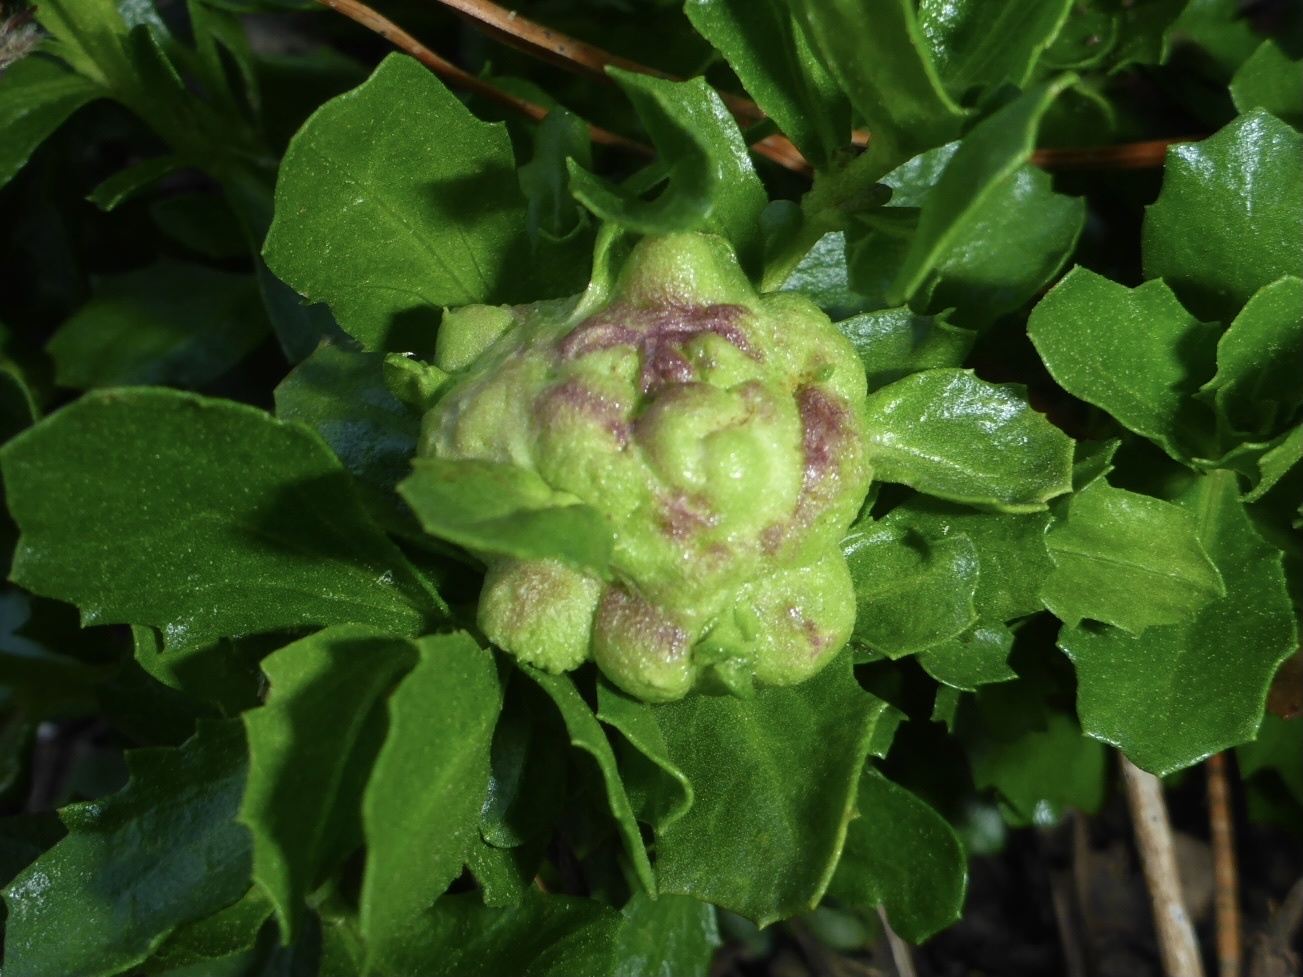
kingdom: Animalia
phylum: Arthropoda
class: Insecta
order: Diptera
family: Cecidomyiidae
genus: Rhopalomyia
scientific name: Rhopalomyia californica
